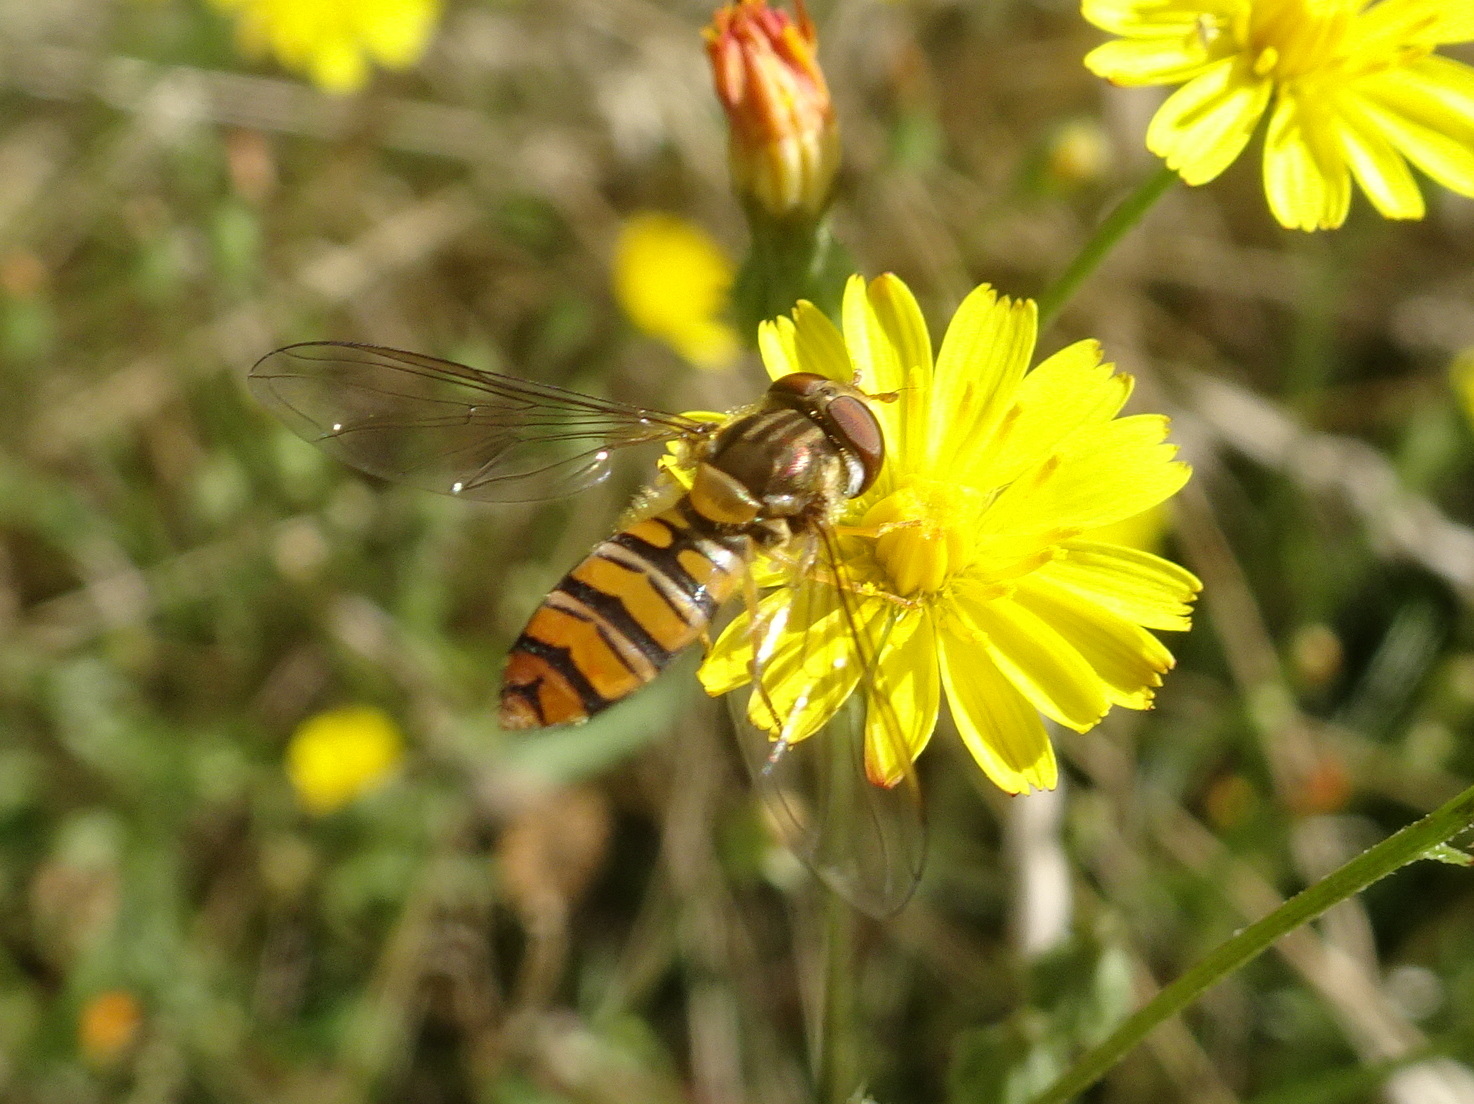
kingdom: Animalia
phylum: Arthropoda
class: Insecta
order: Diptera
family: Syrphidae
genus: Episyrphus
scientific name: Episyrphus balteatus
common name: Marmalade hoverfly
